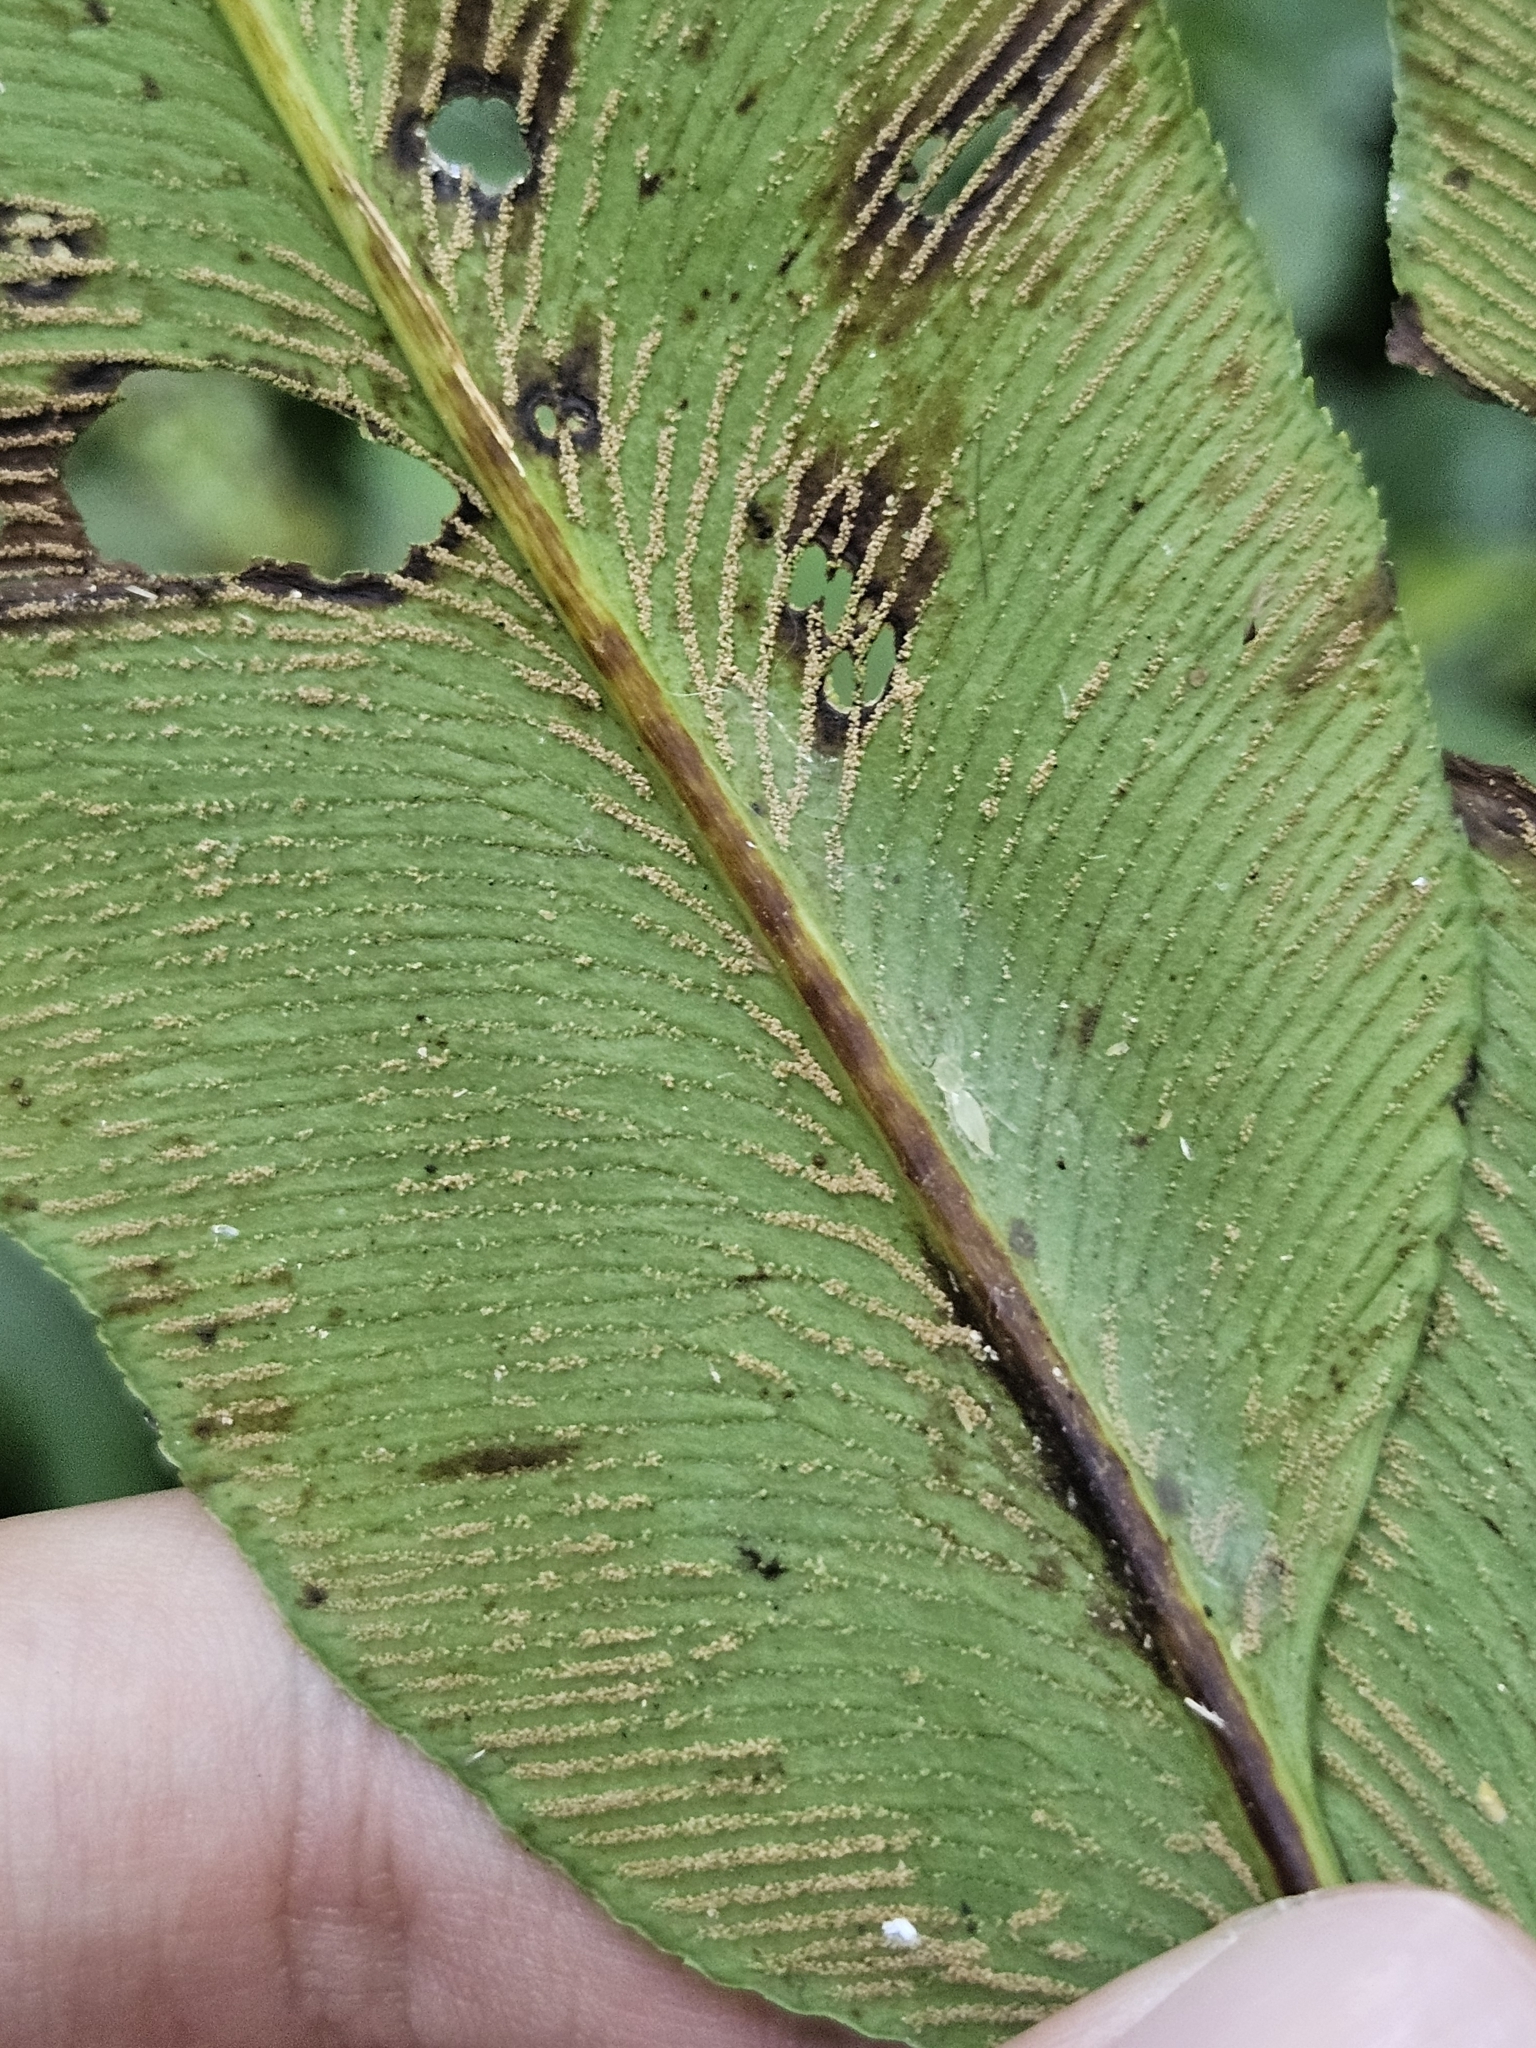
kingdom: Plantae
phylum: Tracheophyta
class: Polypodiopsida
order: Polypodiales
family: Pteridaceae
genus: Coniogramme
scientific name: Coniogramme intermedia
